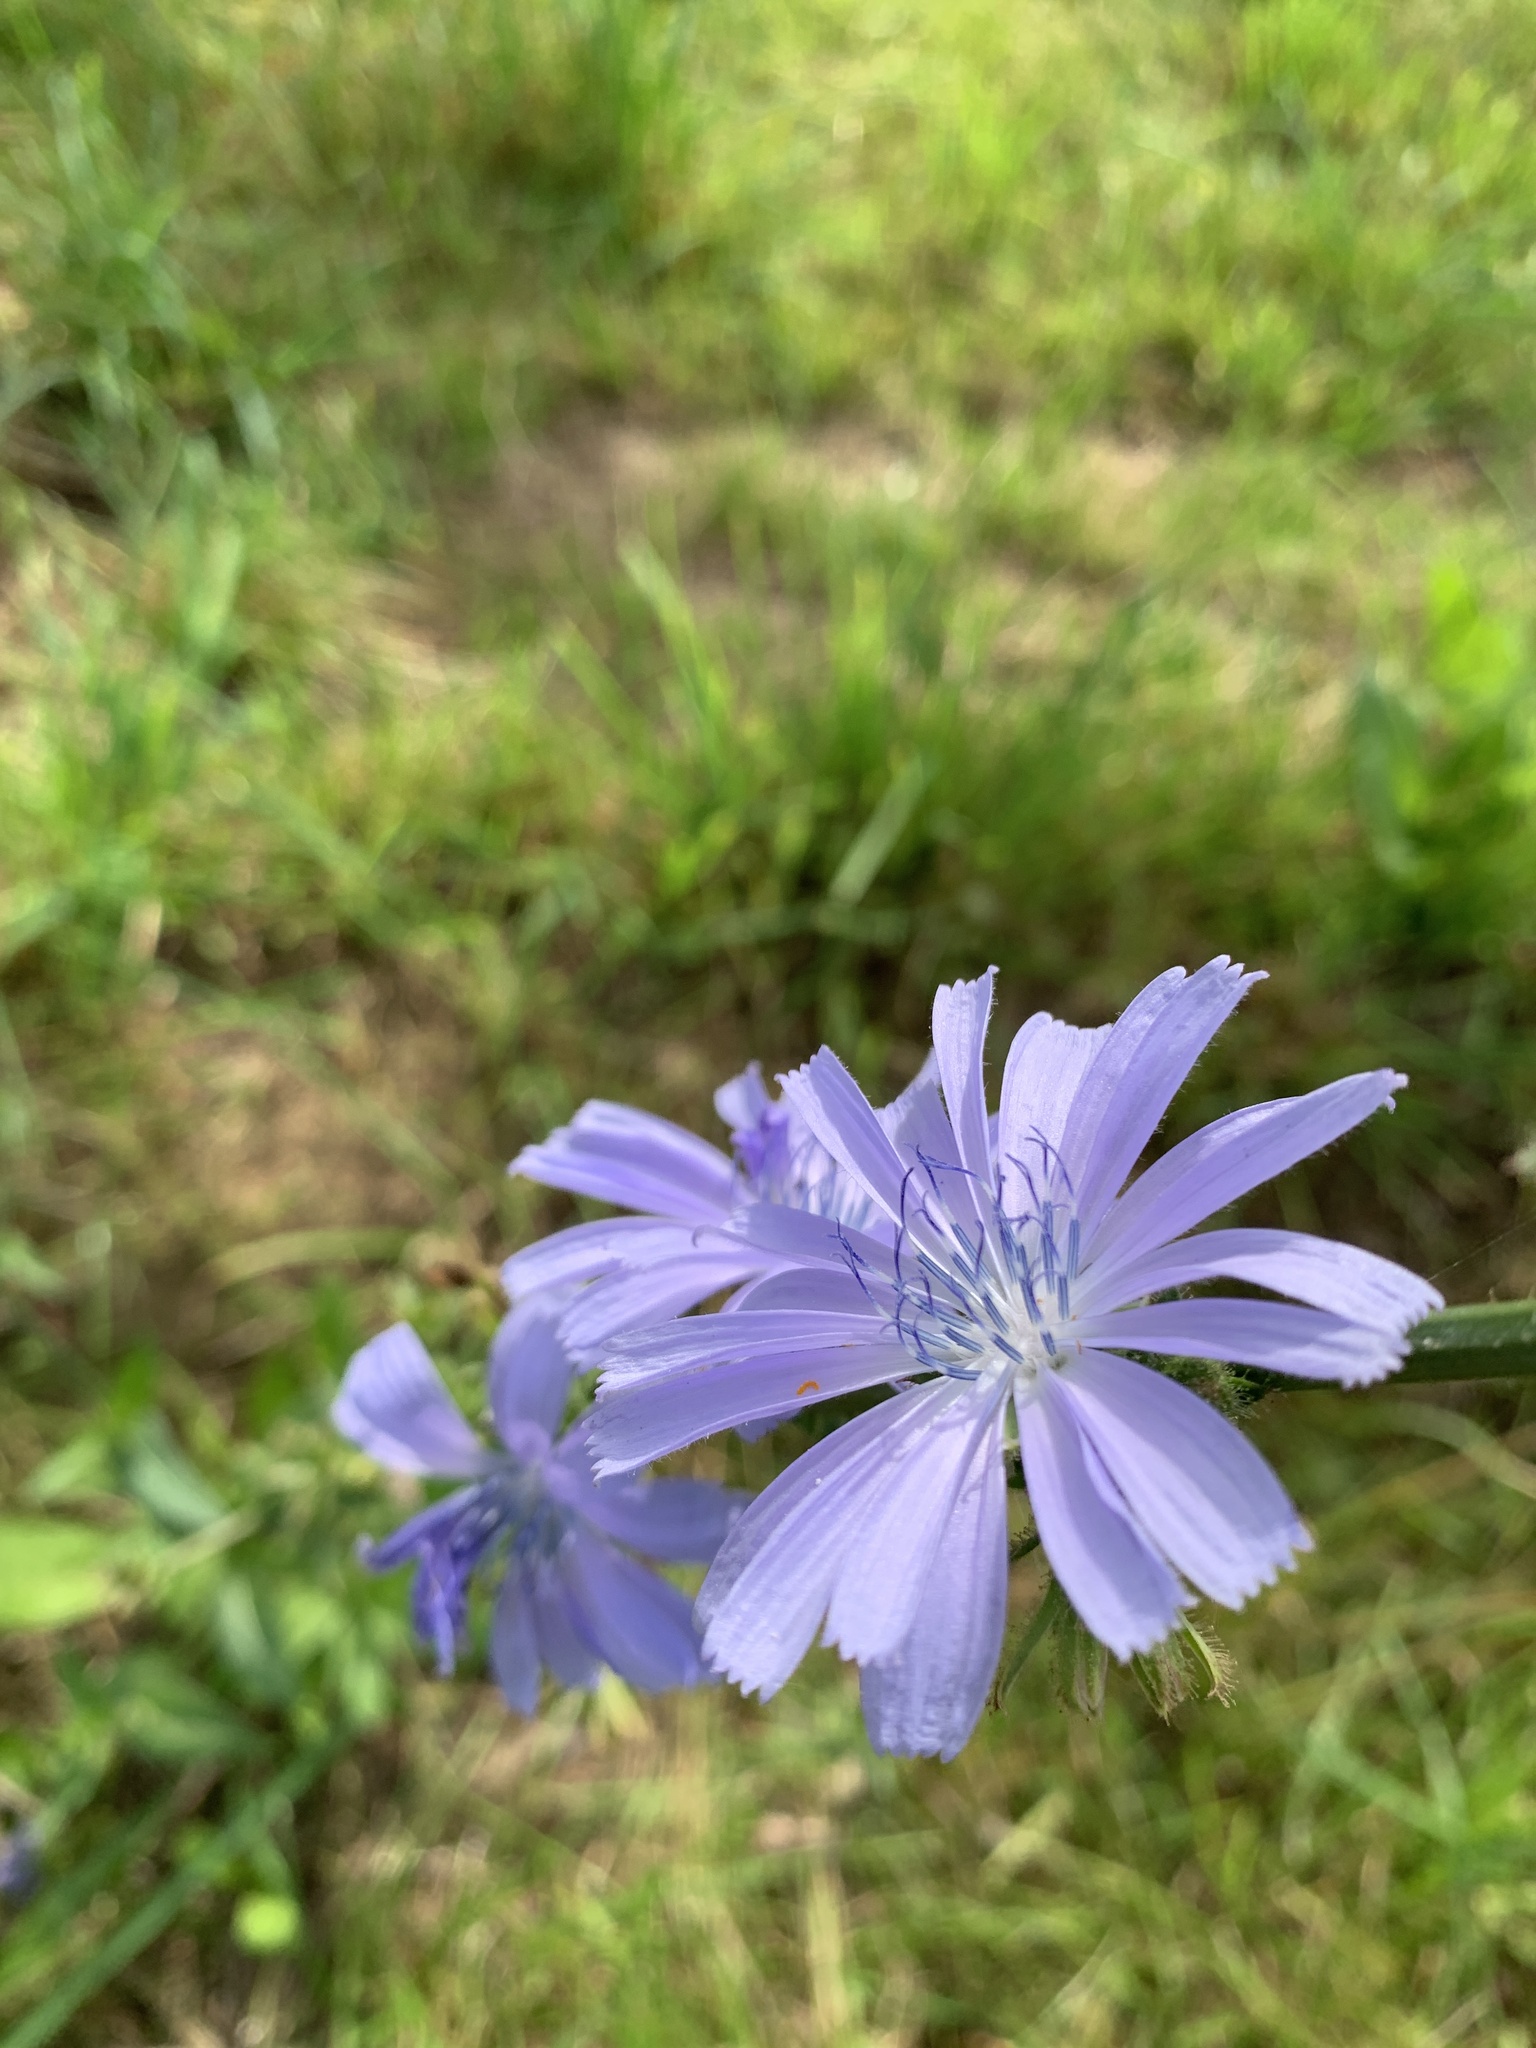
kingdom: Plantae
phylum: Tracheophyta
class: Magnoliopsida
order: Asterales
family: Asteraceae
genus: Cichorium
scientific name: Cichorium intybus
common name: Chicory
